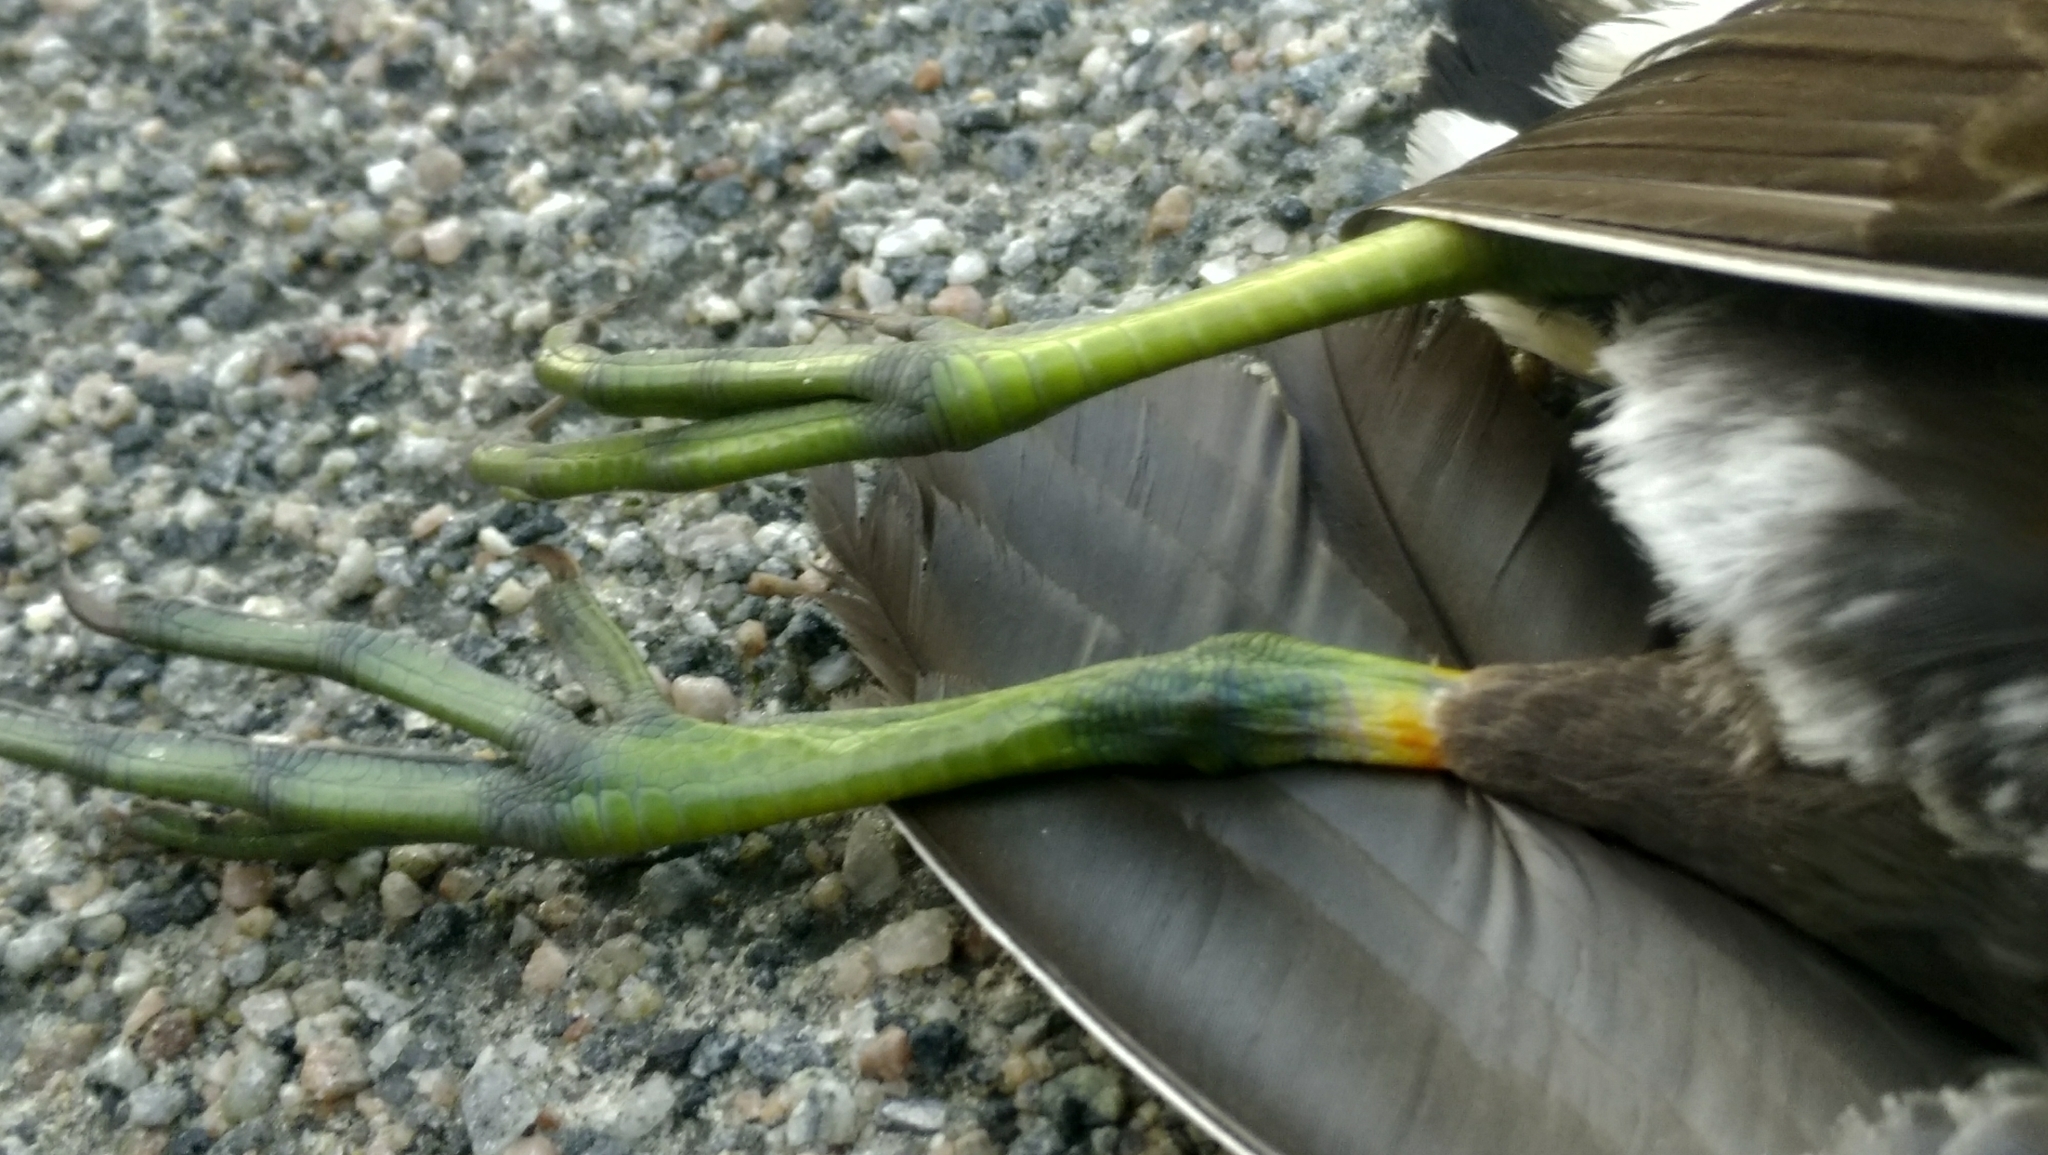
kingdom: Animalia
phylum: Chordata
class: Aves
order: Gruiformes
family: Rallidae
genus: Gallinula
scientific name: Gallinula chloropus
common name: Common moorhen
